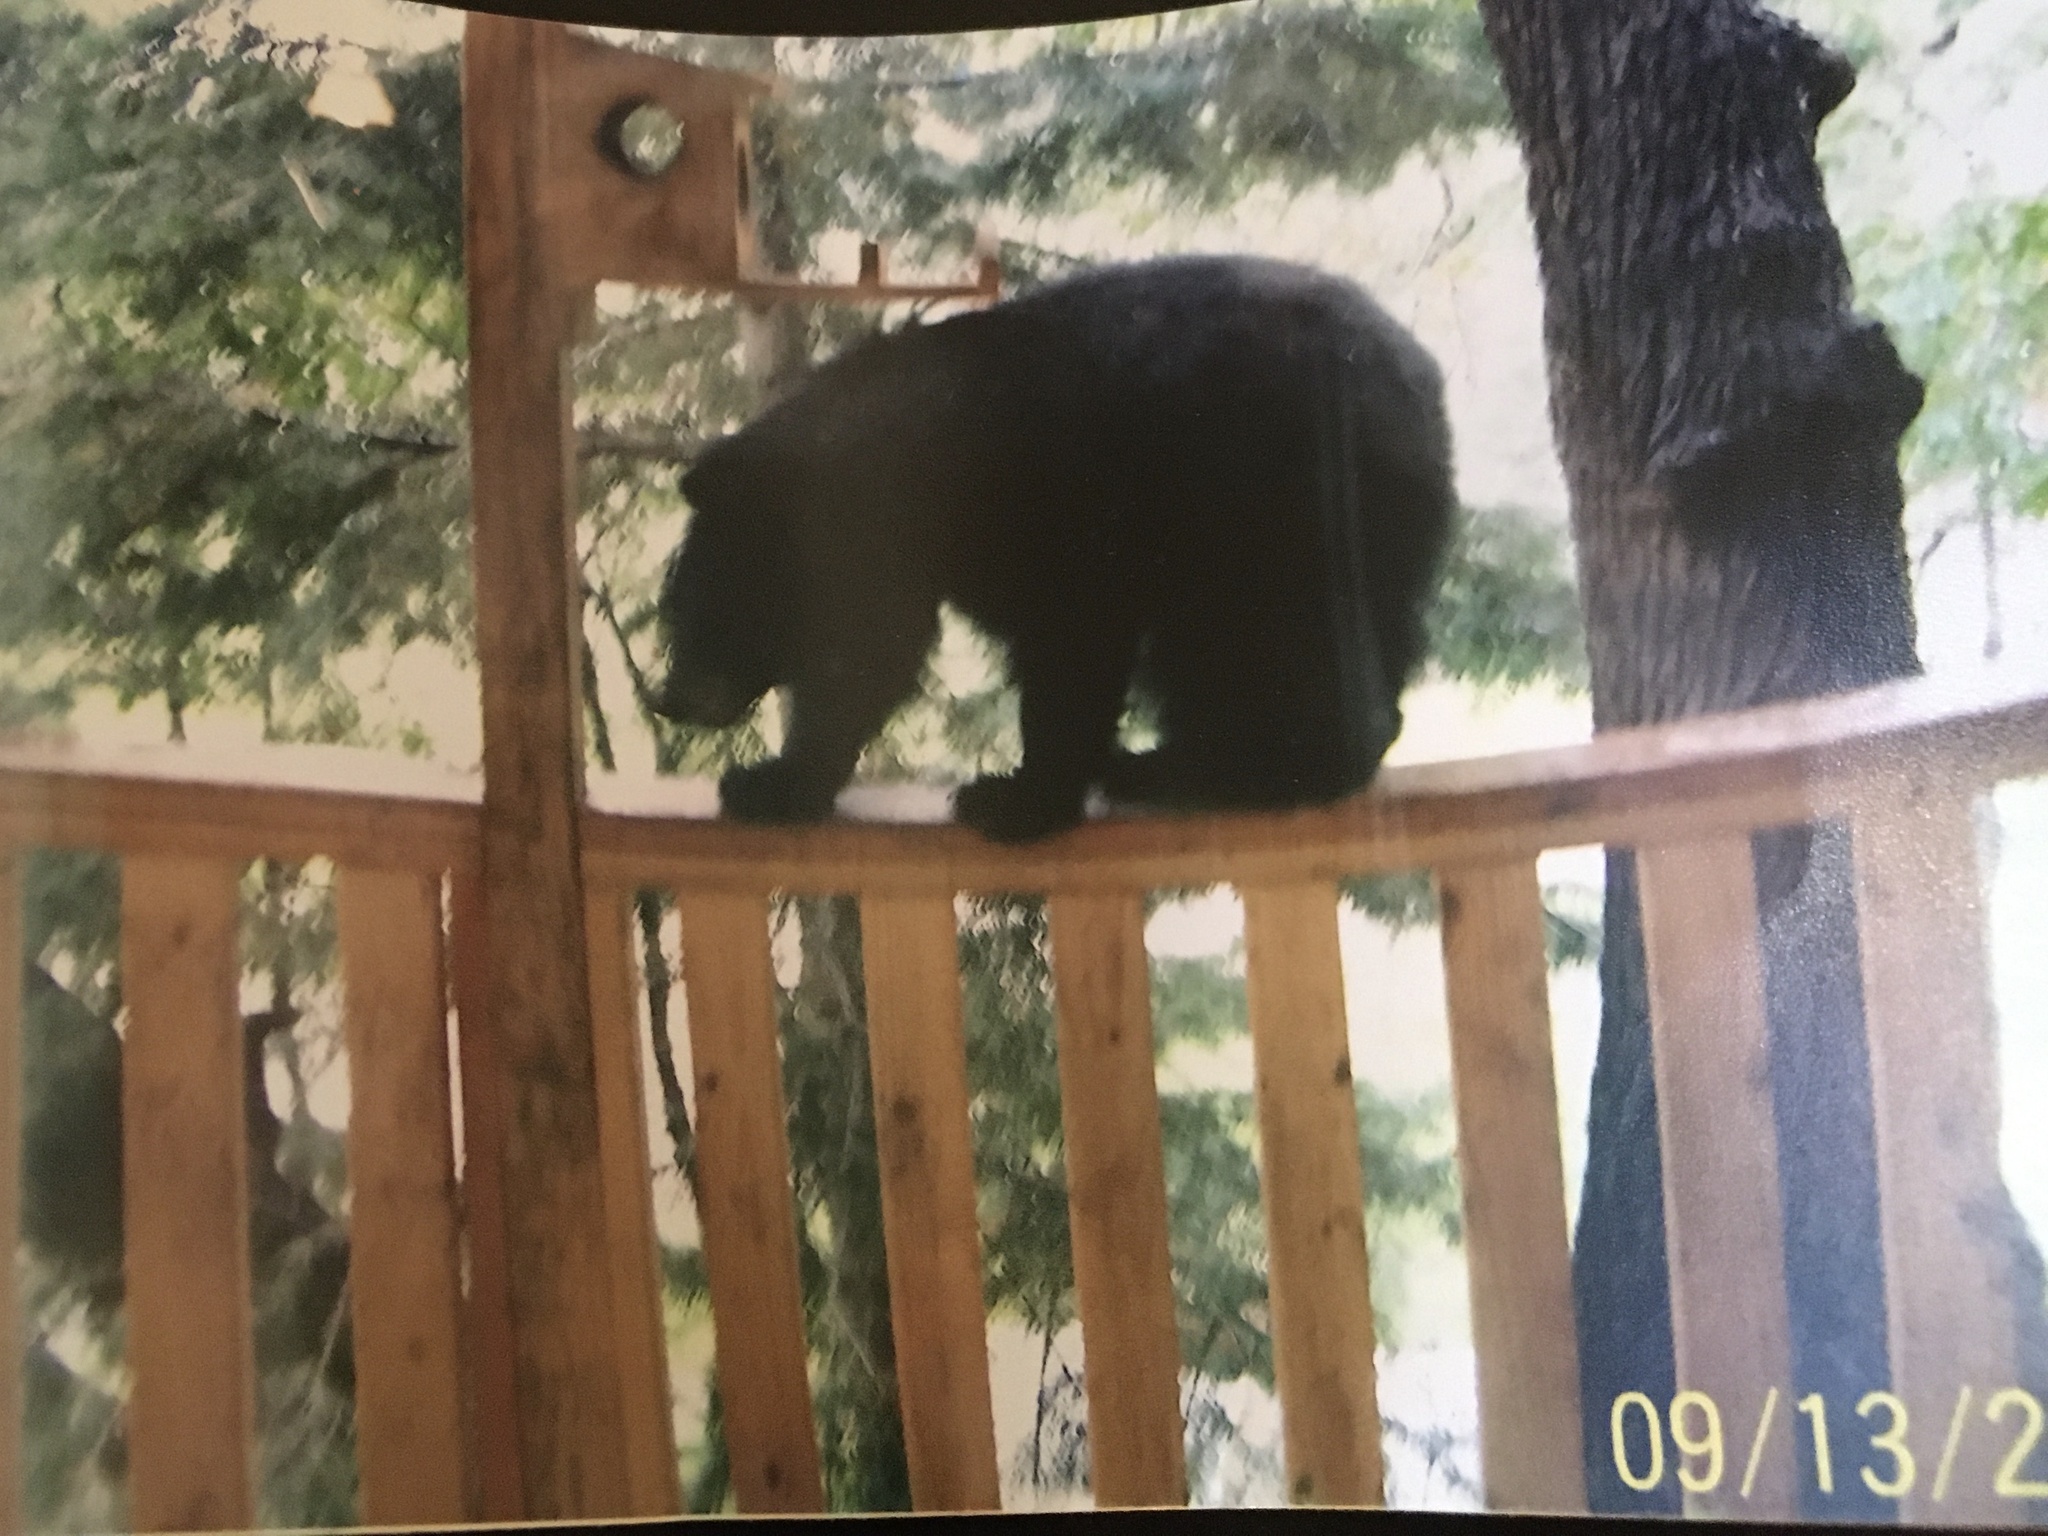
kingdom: Animalia
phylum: Chordata
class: Mammalia
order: Carnivora
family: Ursidae
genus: Ursus
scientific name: Ursus americanus
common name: American black bear
